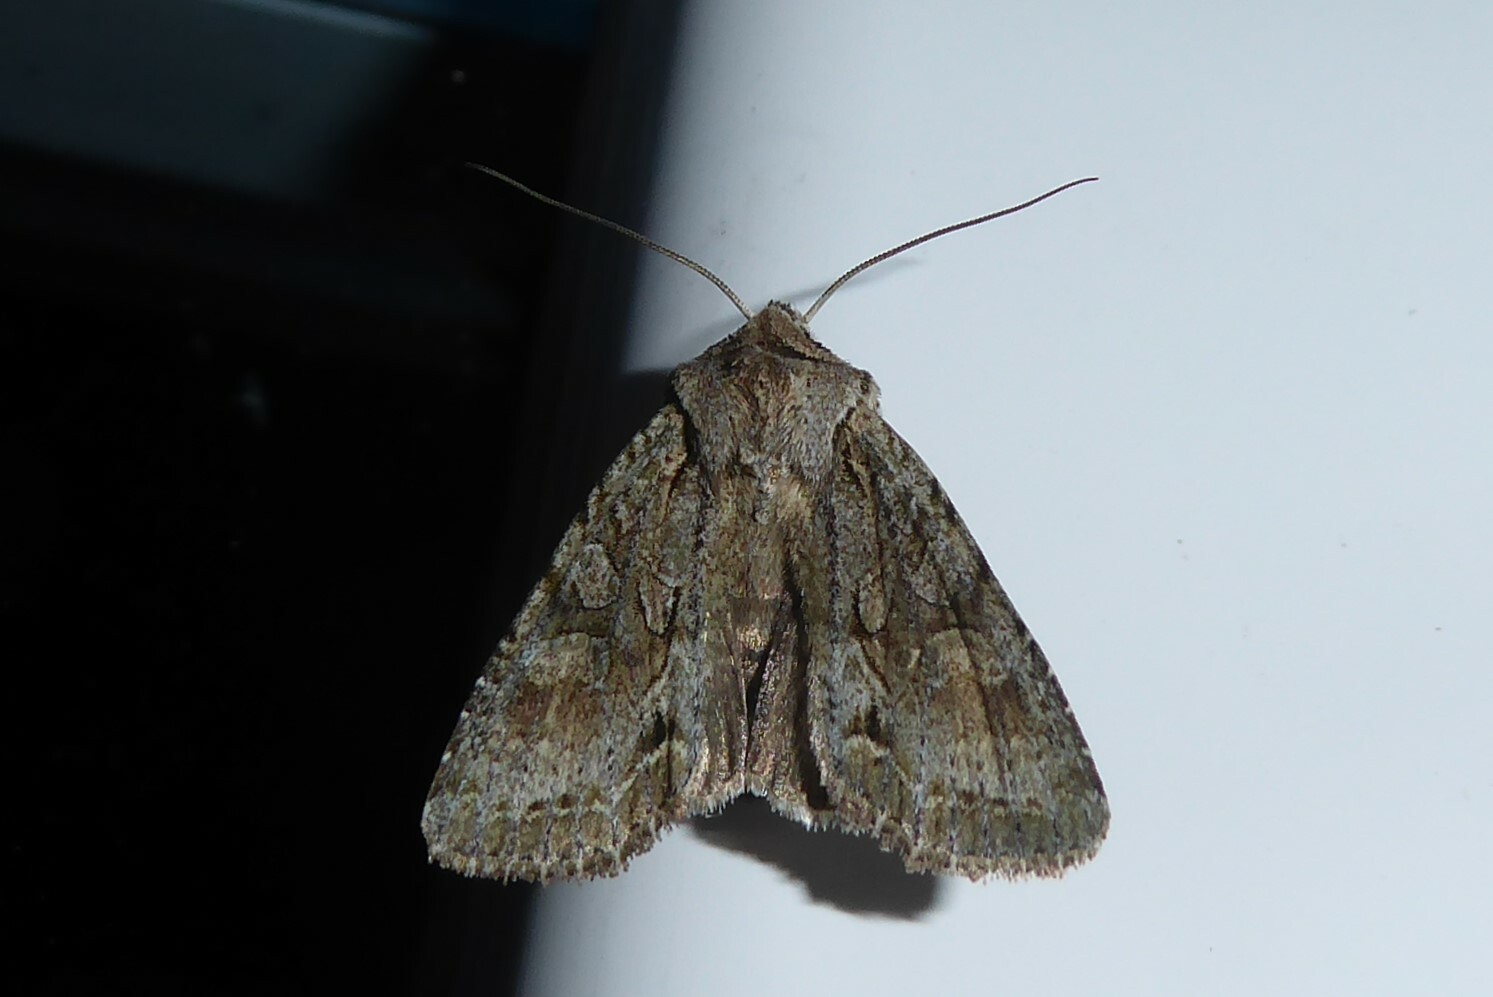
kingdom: Animalia
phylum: Arthropoda
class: Insecta
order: Lepidoptera
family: Noctuidae
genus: Ichneutica
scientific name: Ichneutica mutans
